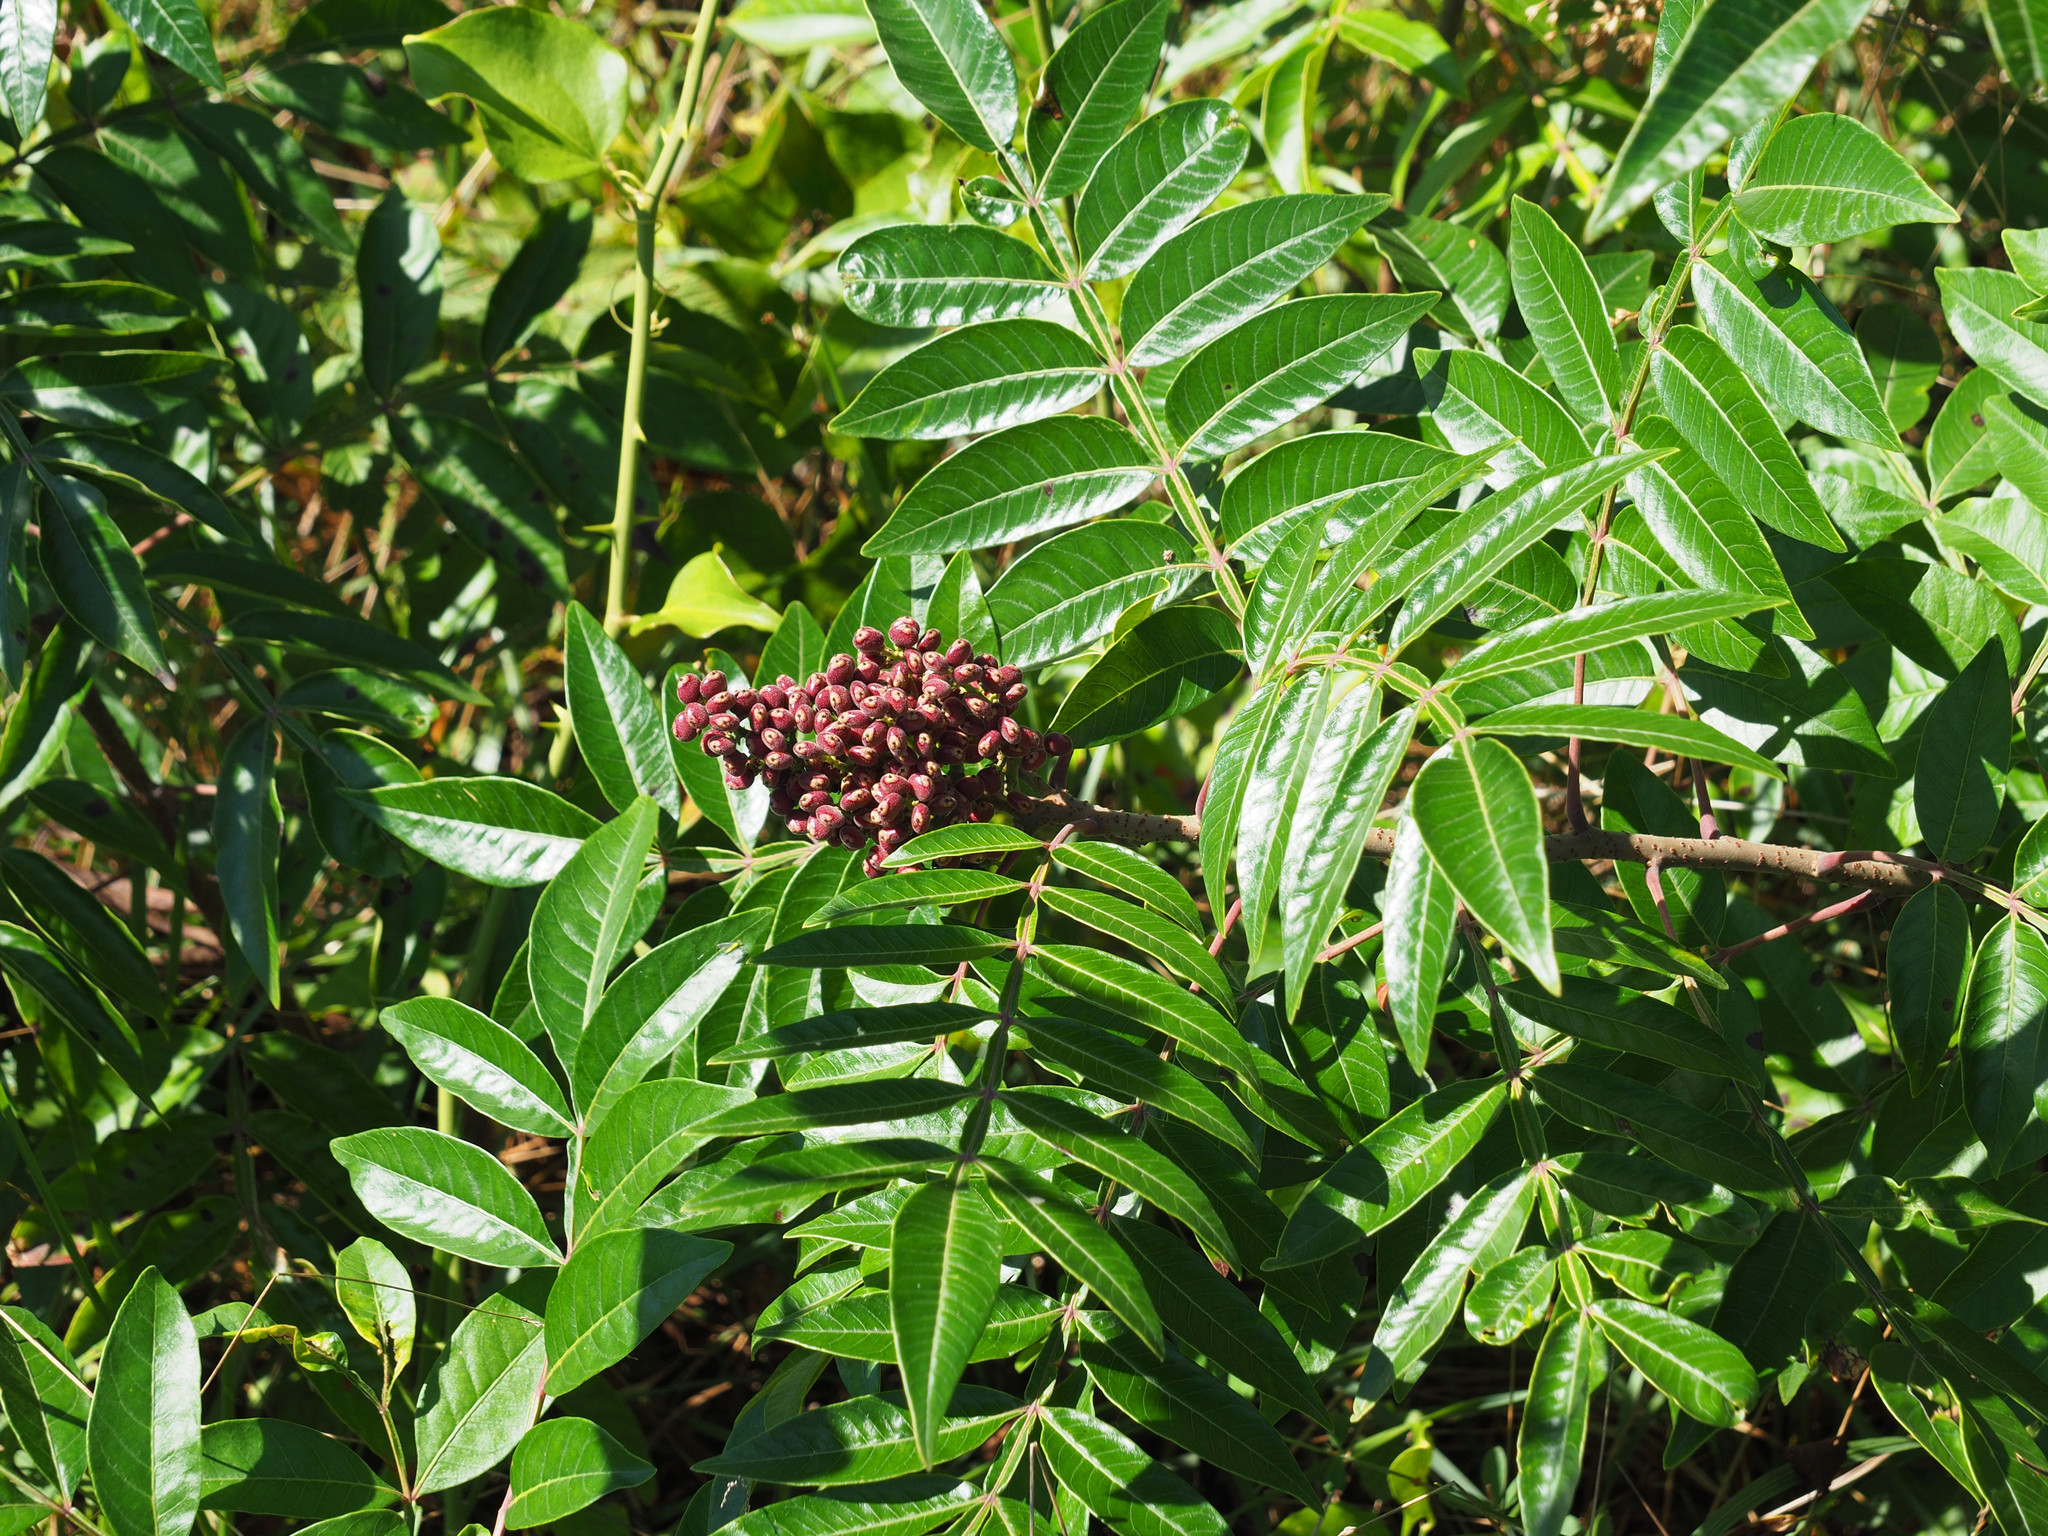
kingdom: Plantae
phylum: Tracheophyta
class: Magnoliopsida
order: Sapindales
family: Anacardiaceae
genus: Rhus
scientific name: Rhus copallina
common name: Shining sumac
